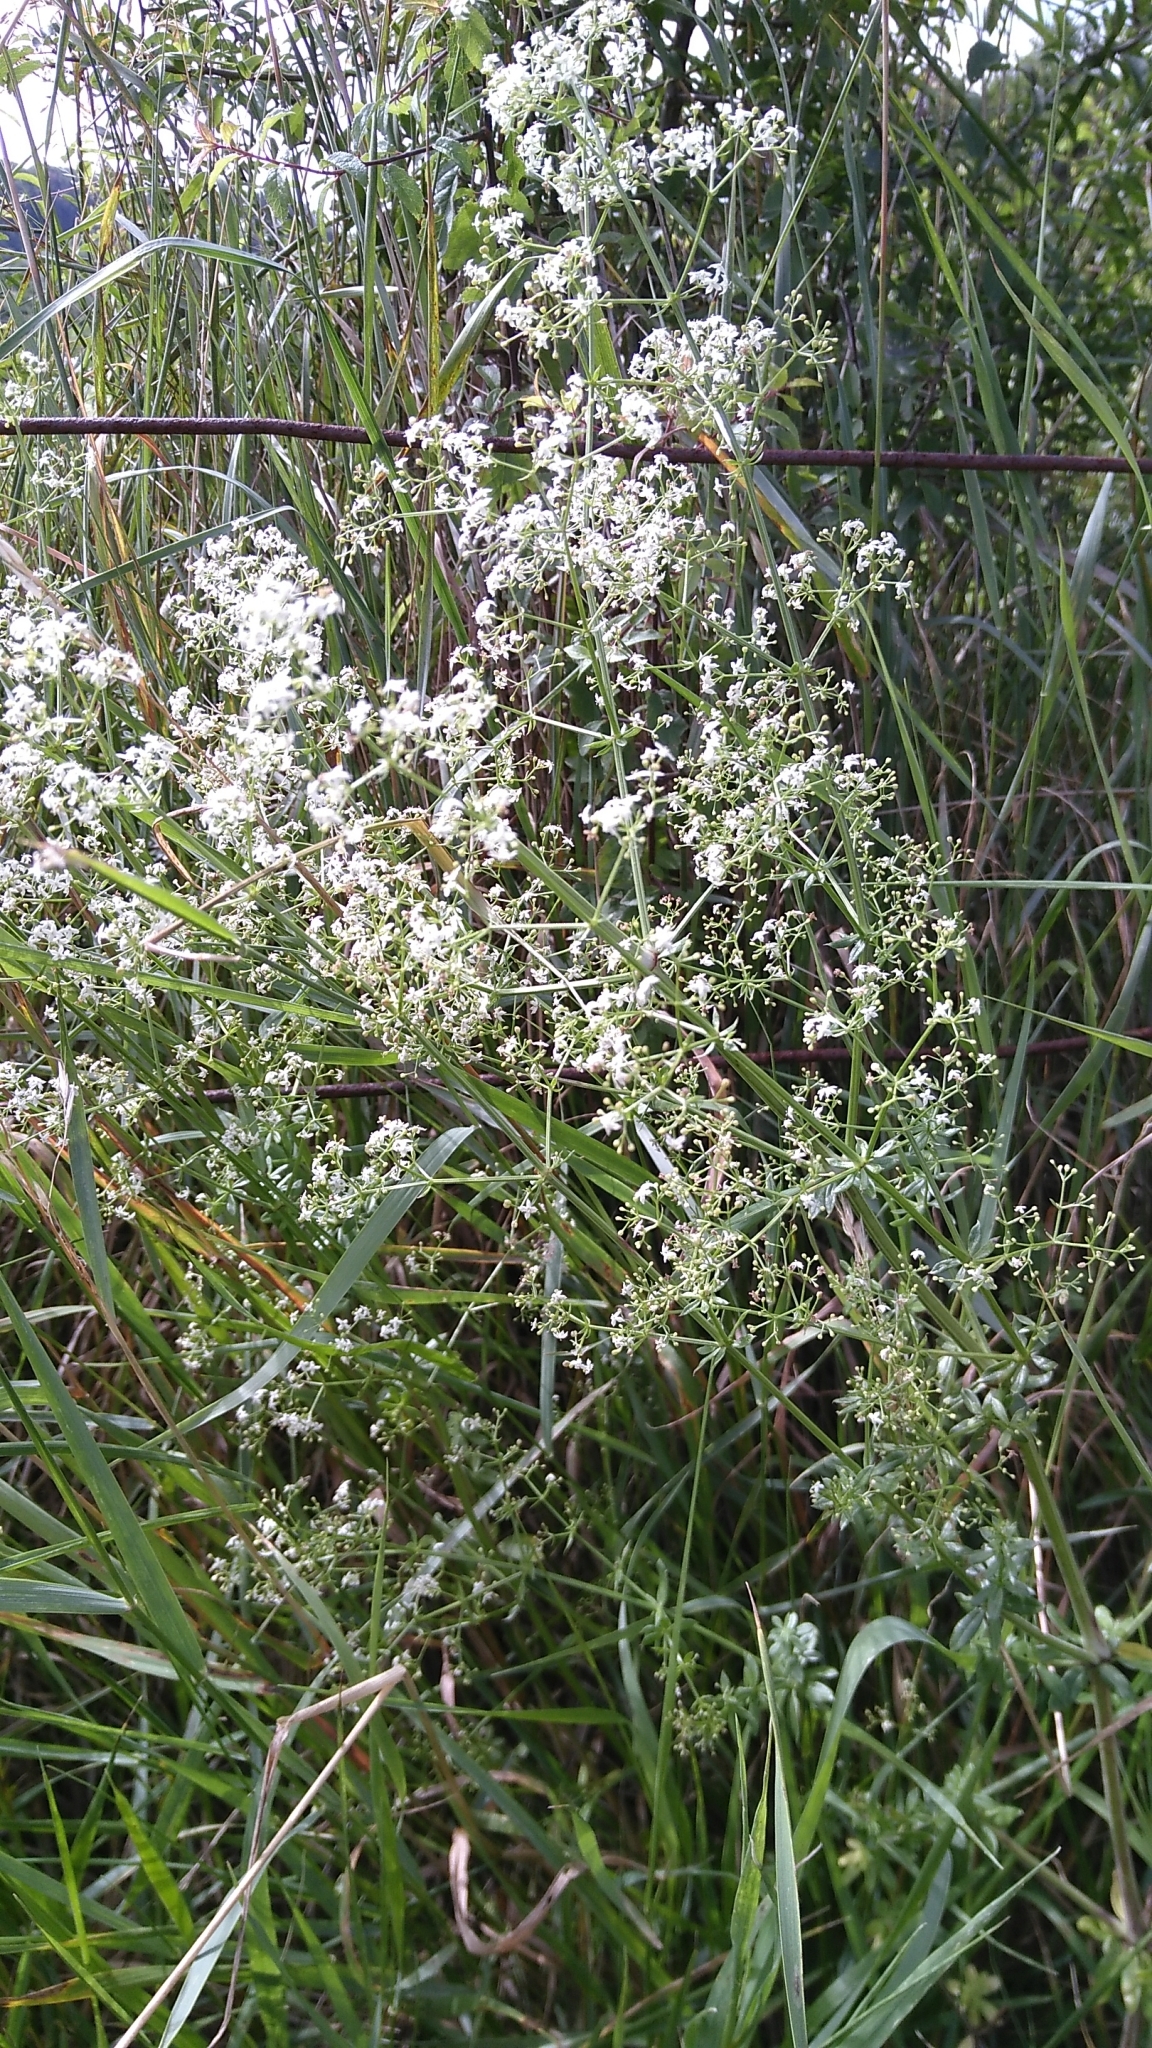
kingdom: Plantae
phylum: Tracheophyta
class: Magnoliopsida
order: Gentianales
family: Rubiaceae
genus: Galium
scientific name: Galium mollugo
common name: Hedge bedstraw
